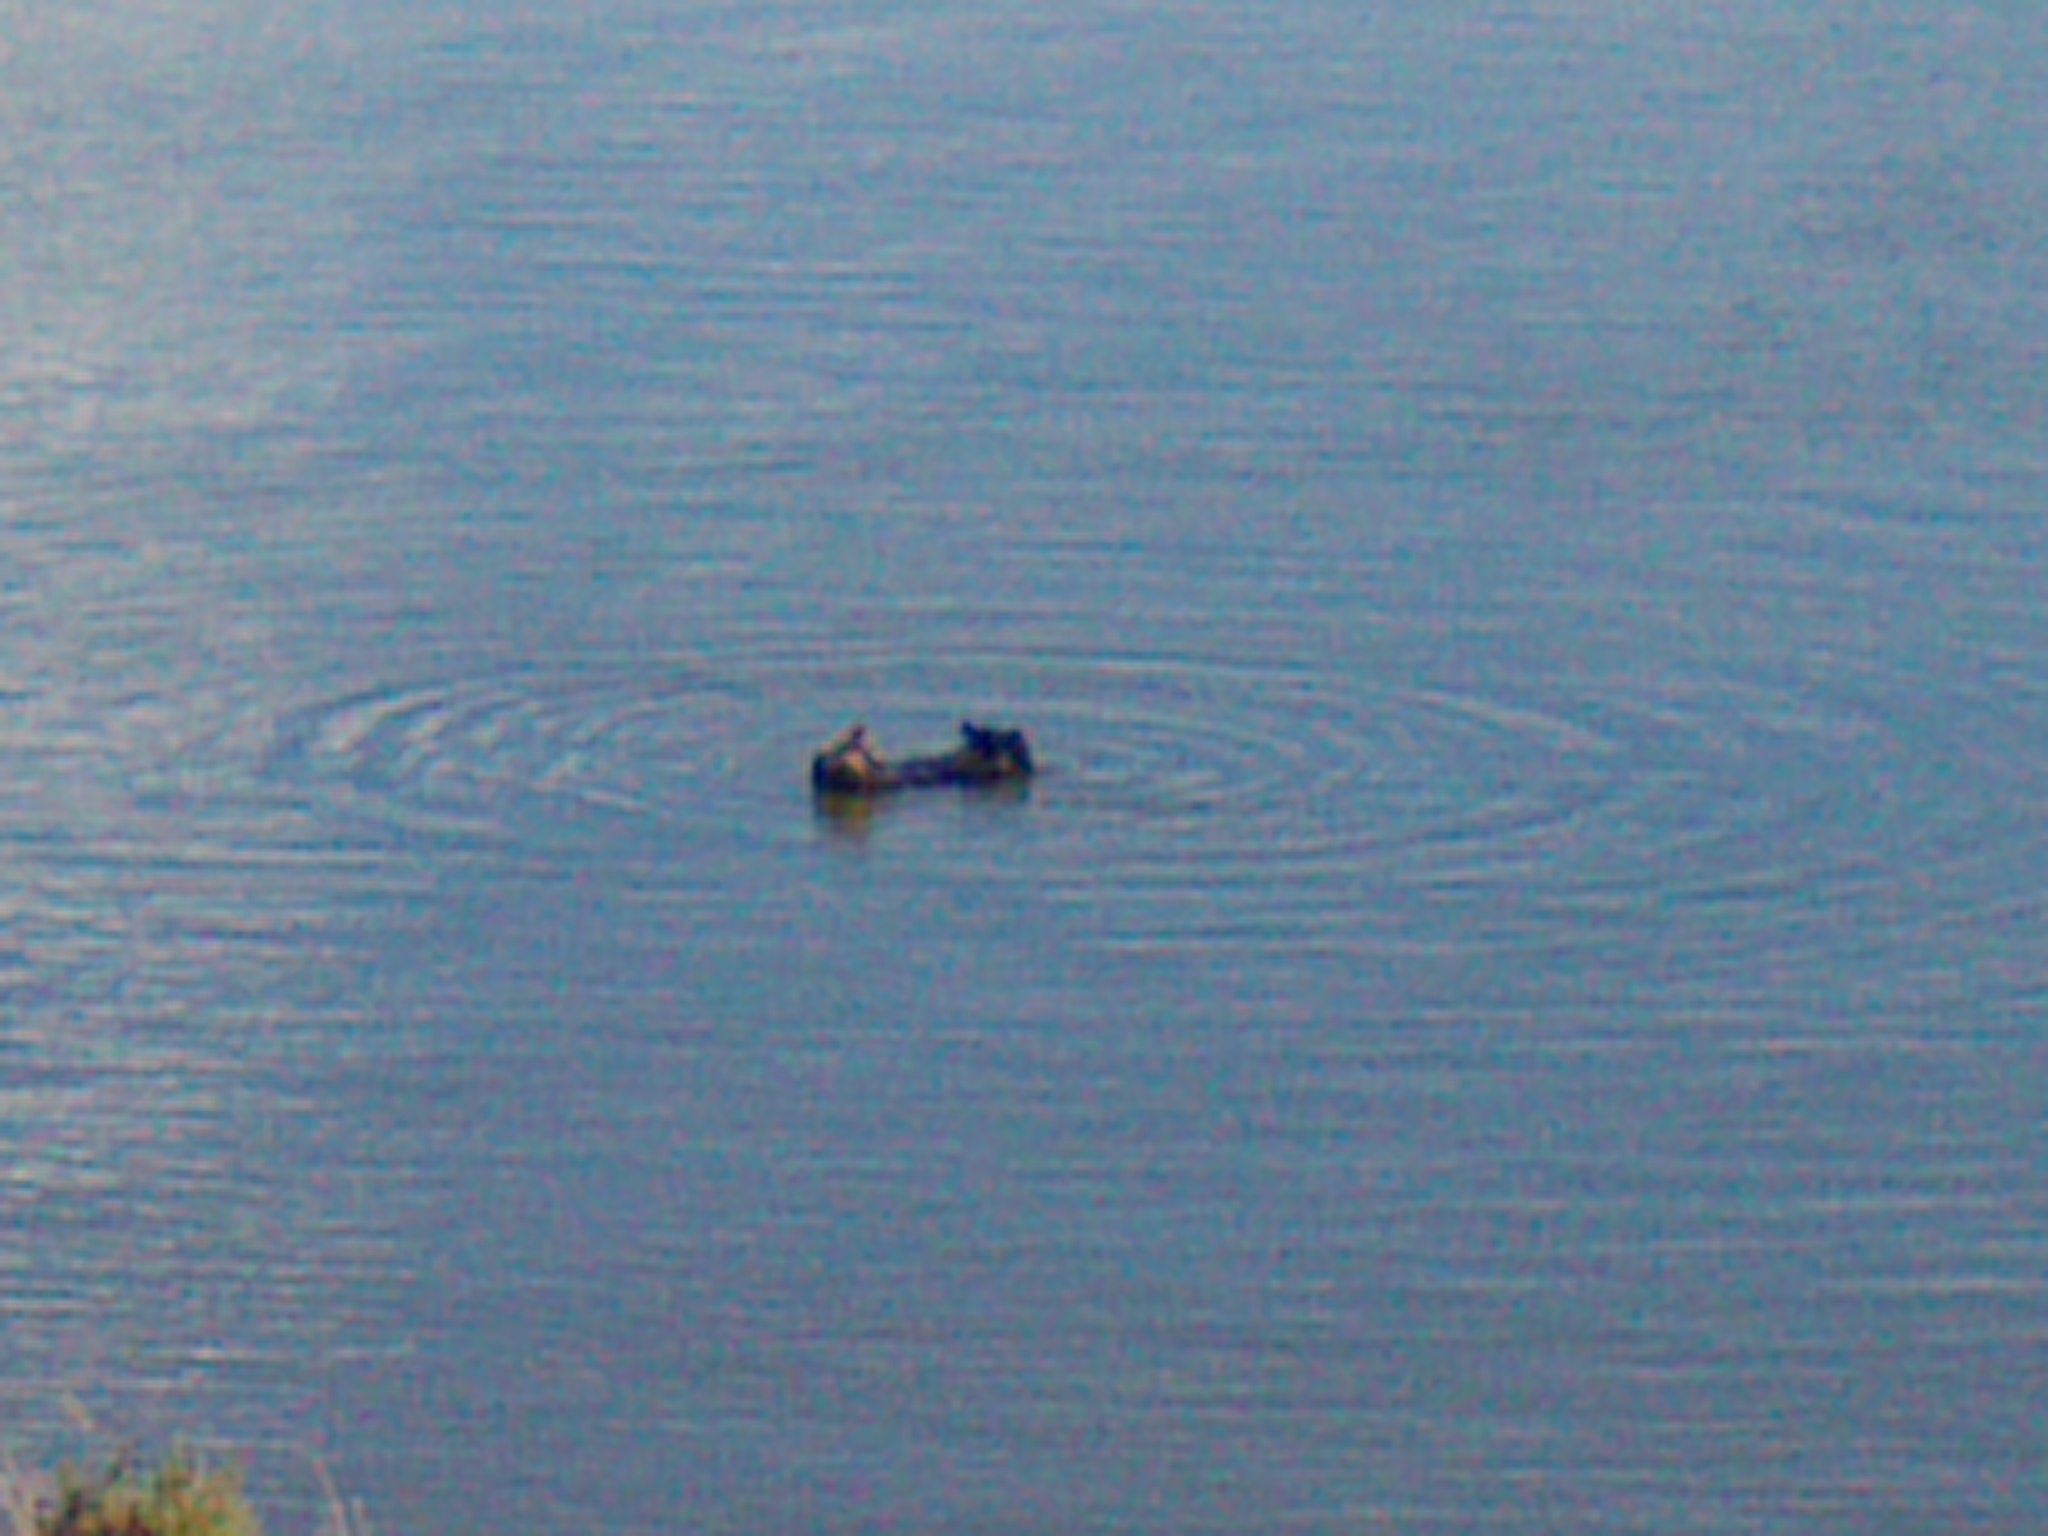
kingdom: Animalia
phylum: Chordata
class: Mammalia
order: Carnivora
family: Mustelidae
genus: Enhydra
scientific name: Enhydra lutris
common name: Sea otter
